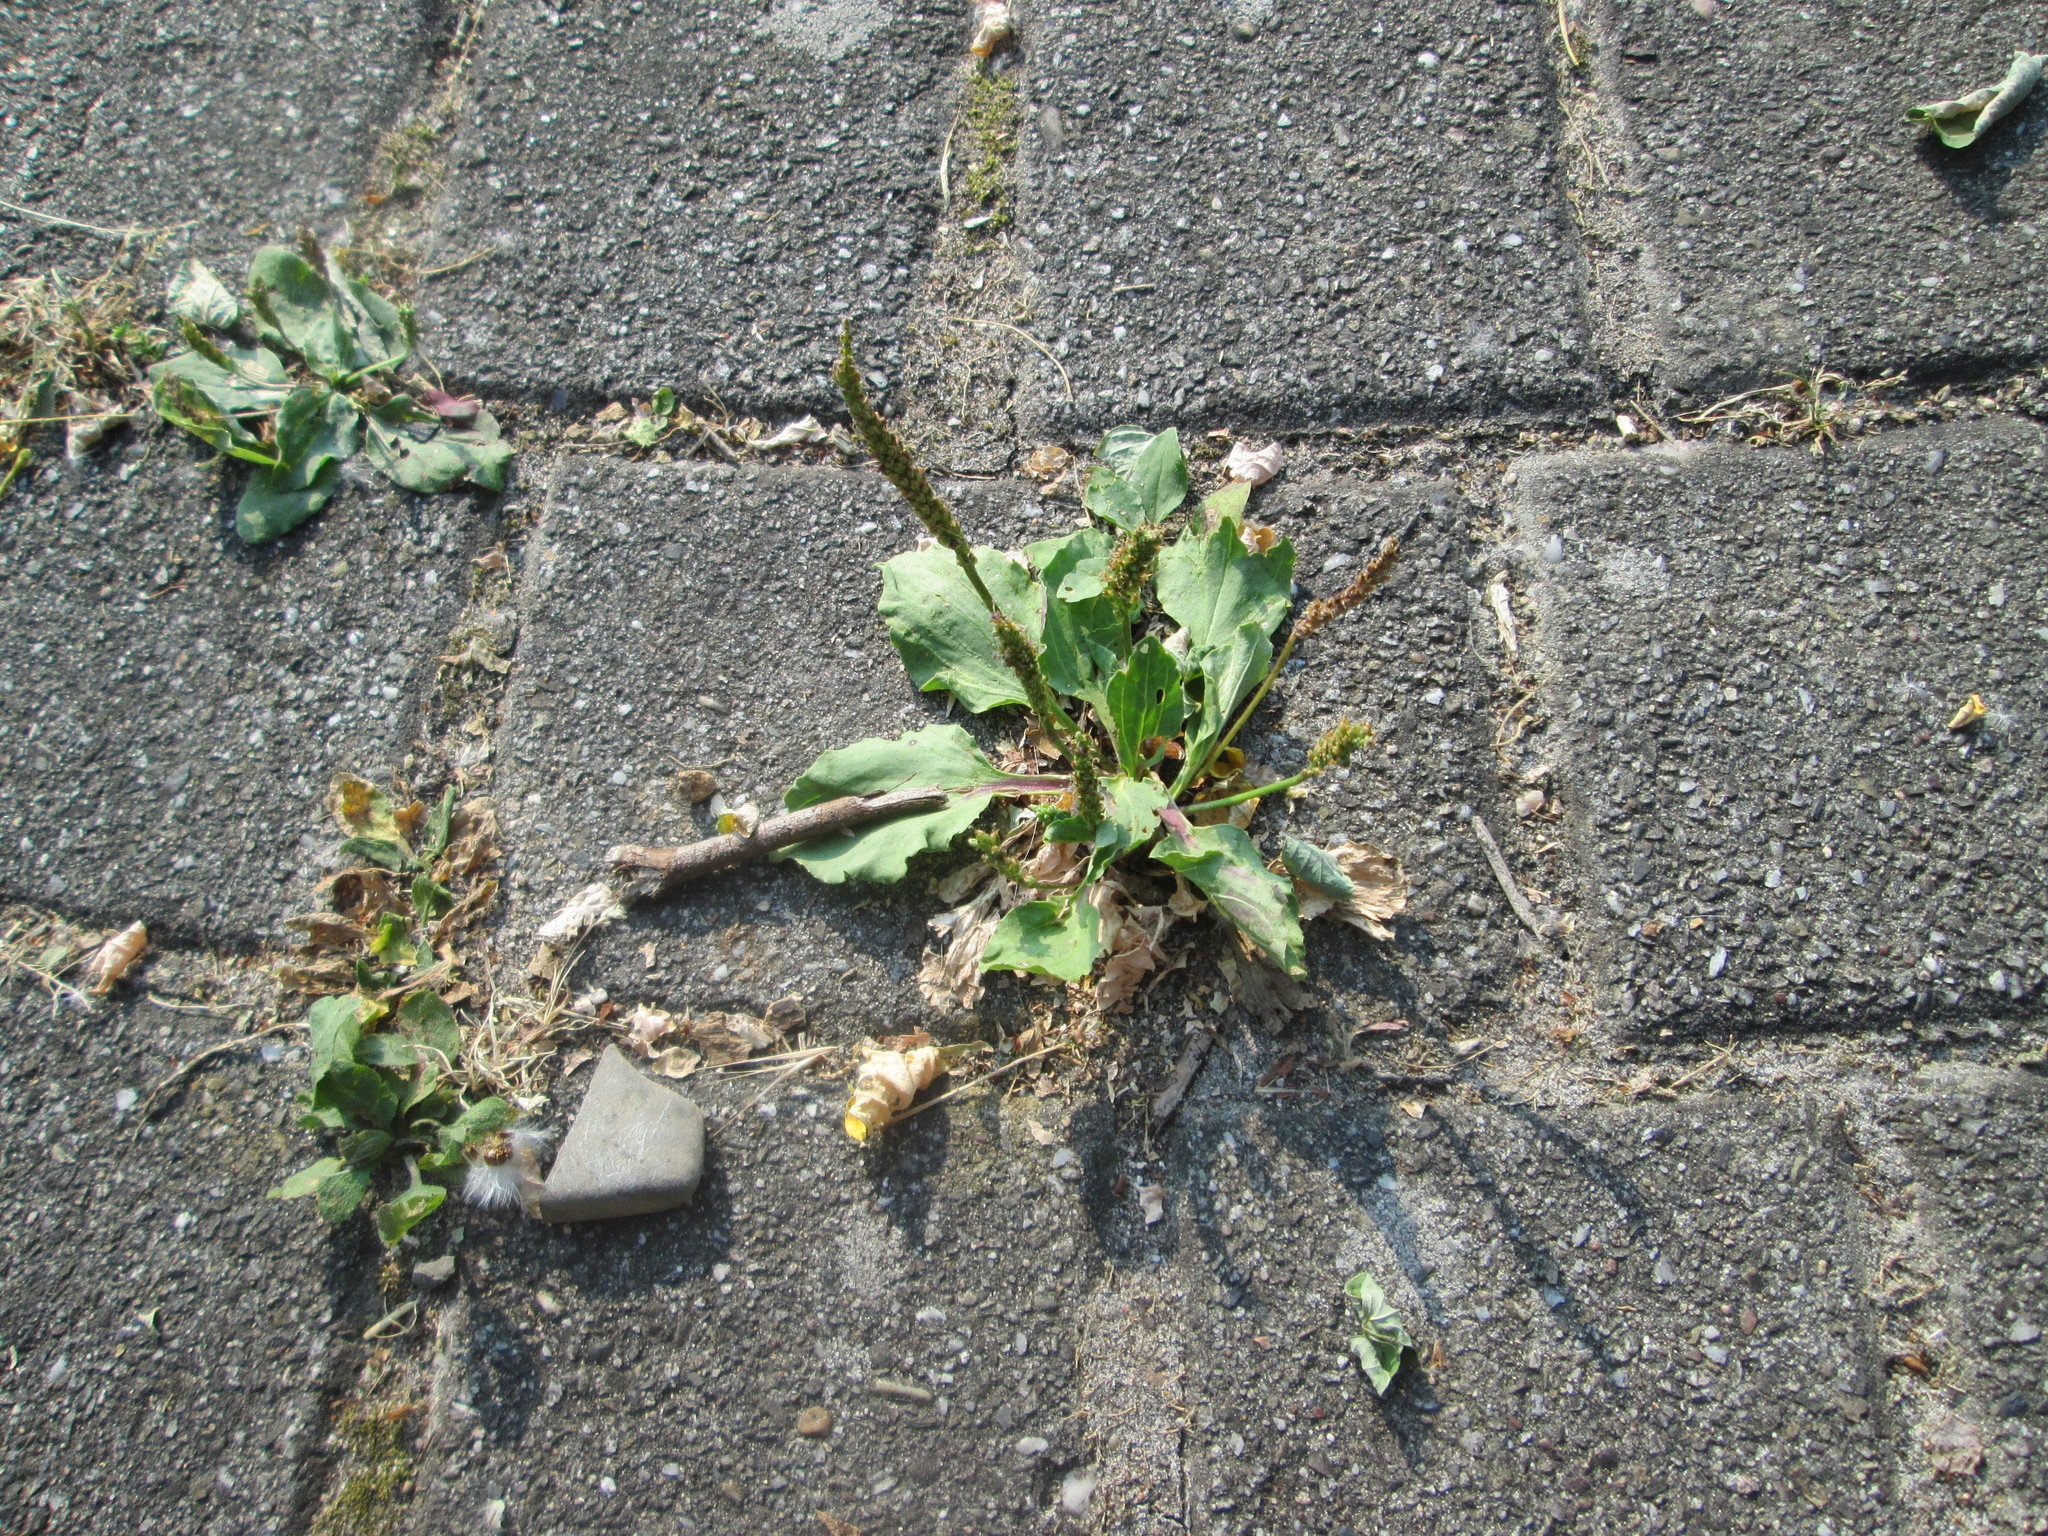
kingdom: Plantae
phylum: Tracheophyta
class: Magnoliopsida
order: Lamiales
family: Plantaginaceae
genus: Plantago
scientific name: Plantago major
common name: Common plantain
